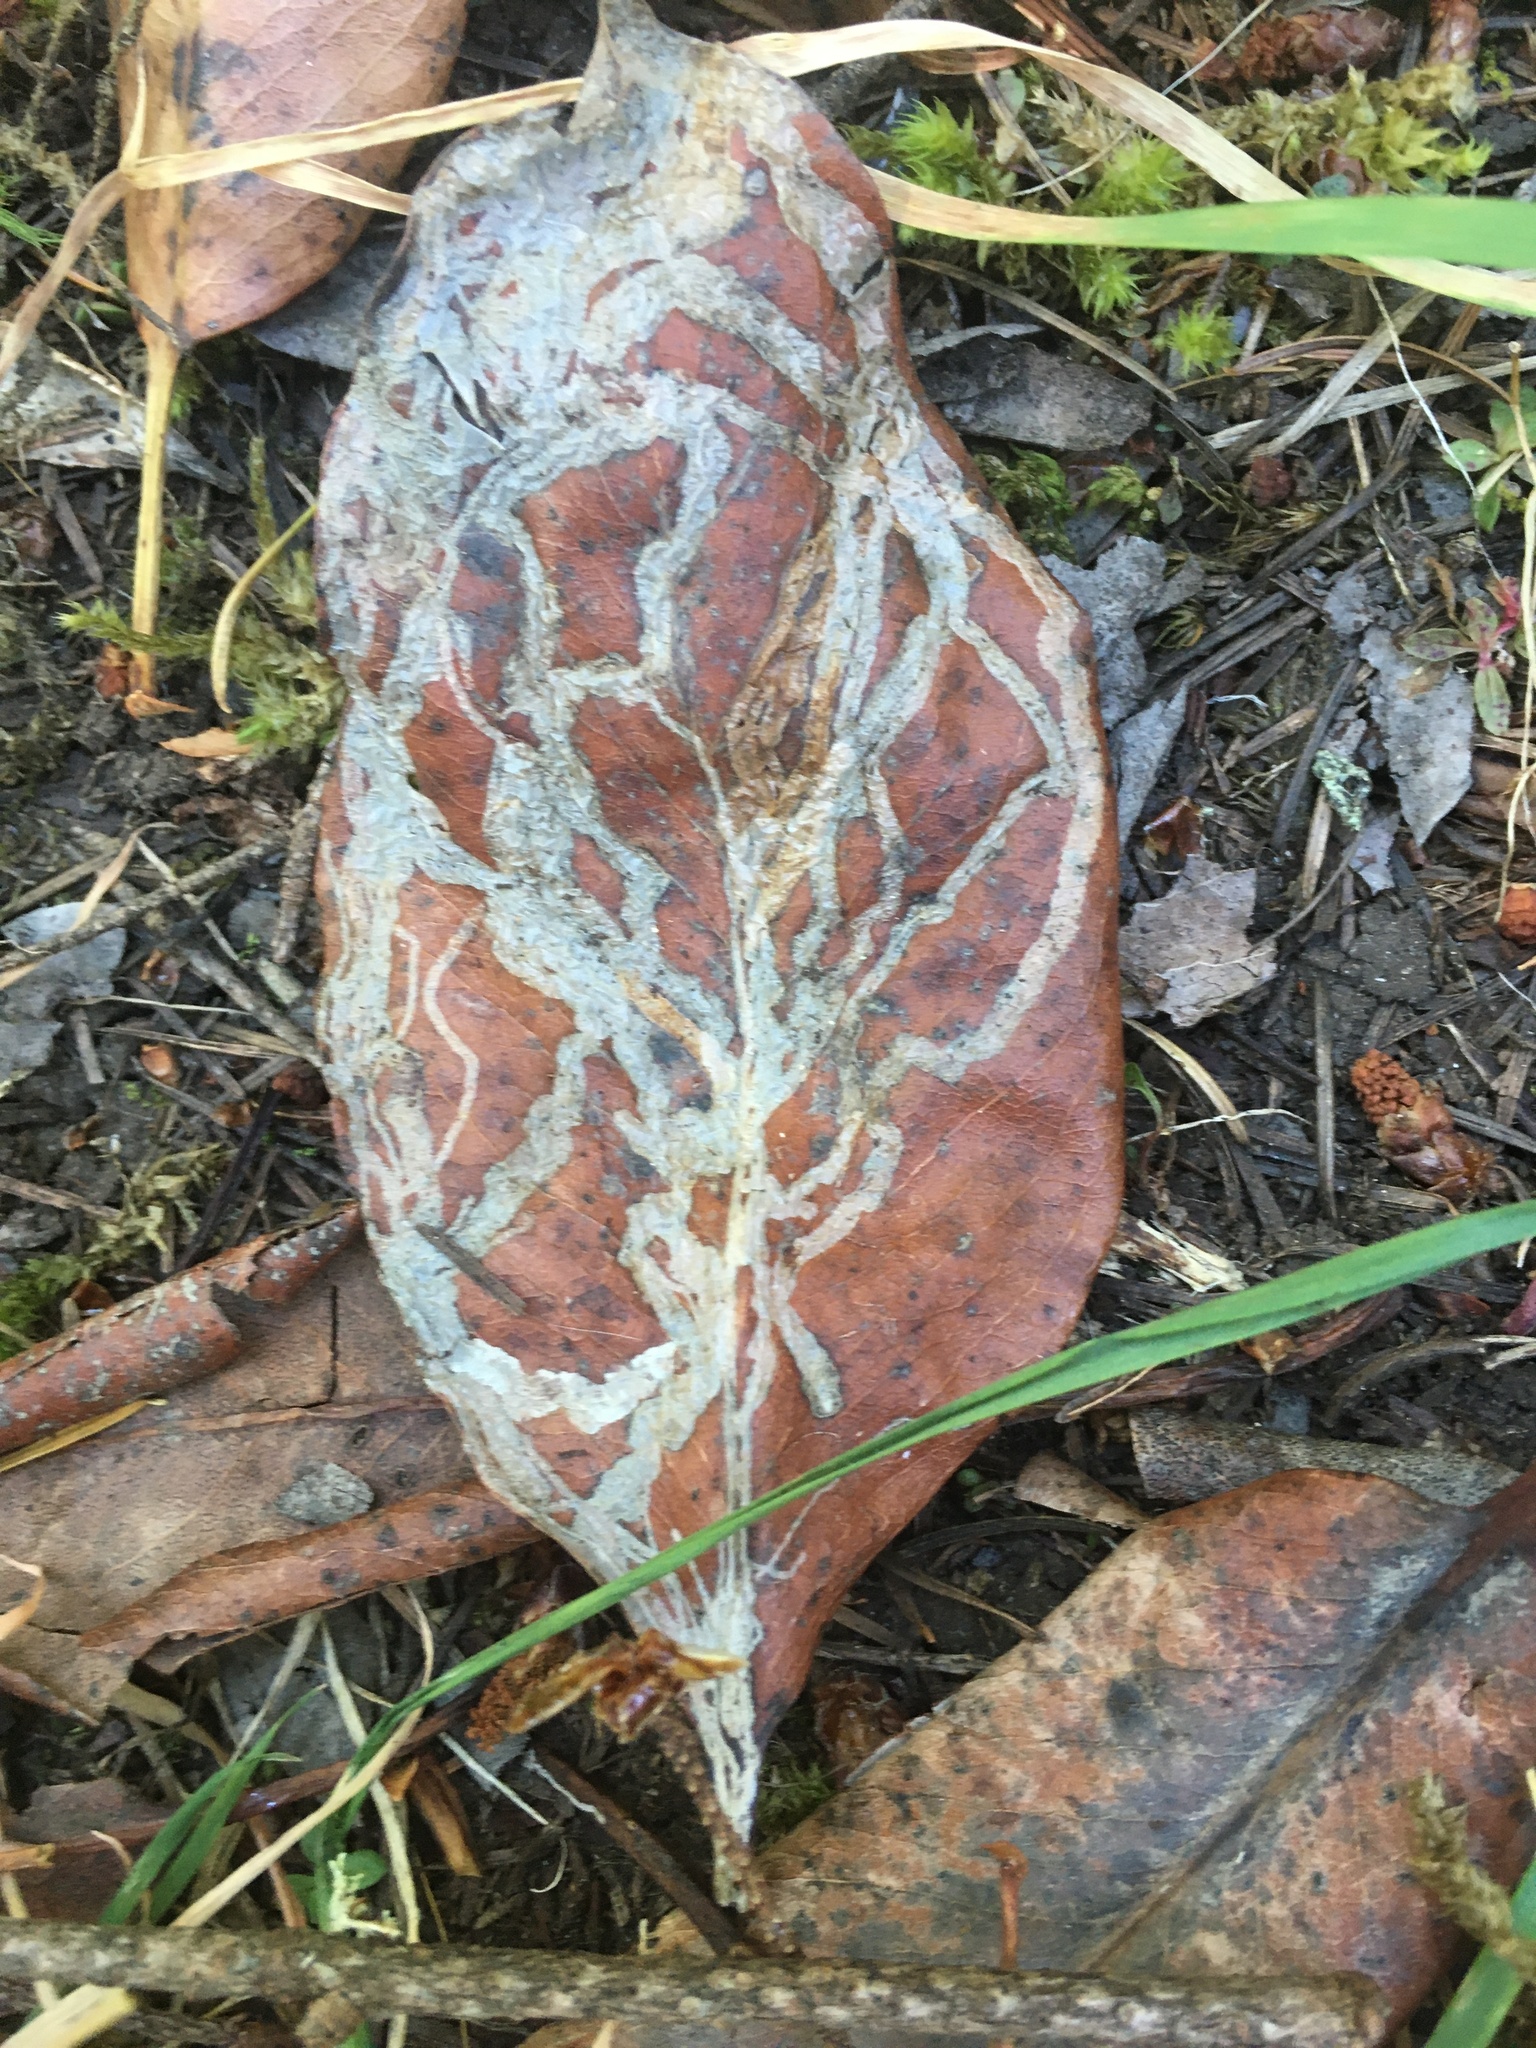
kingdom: Animalia
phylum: Arthropoda
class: Insecta
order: Lepidoptera
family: Gracillariidae
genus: Marmara
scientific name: Marmara arbutiella
